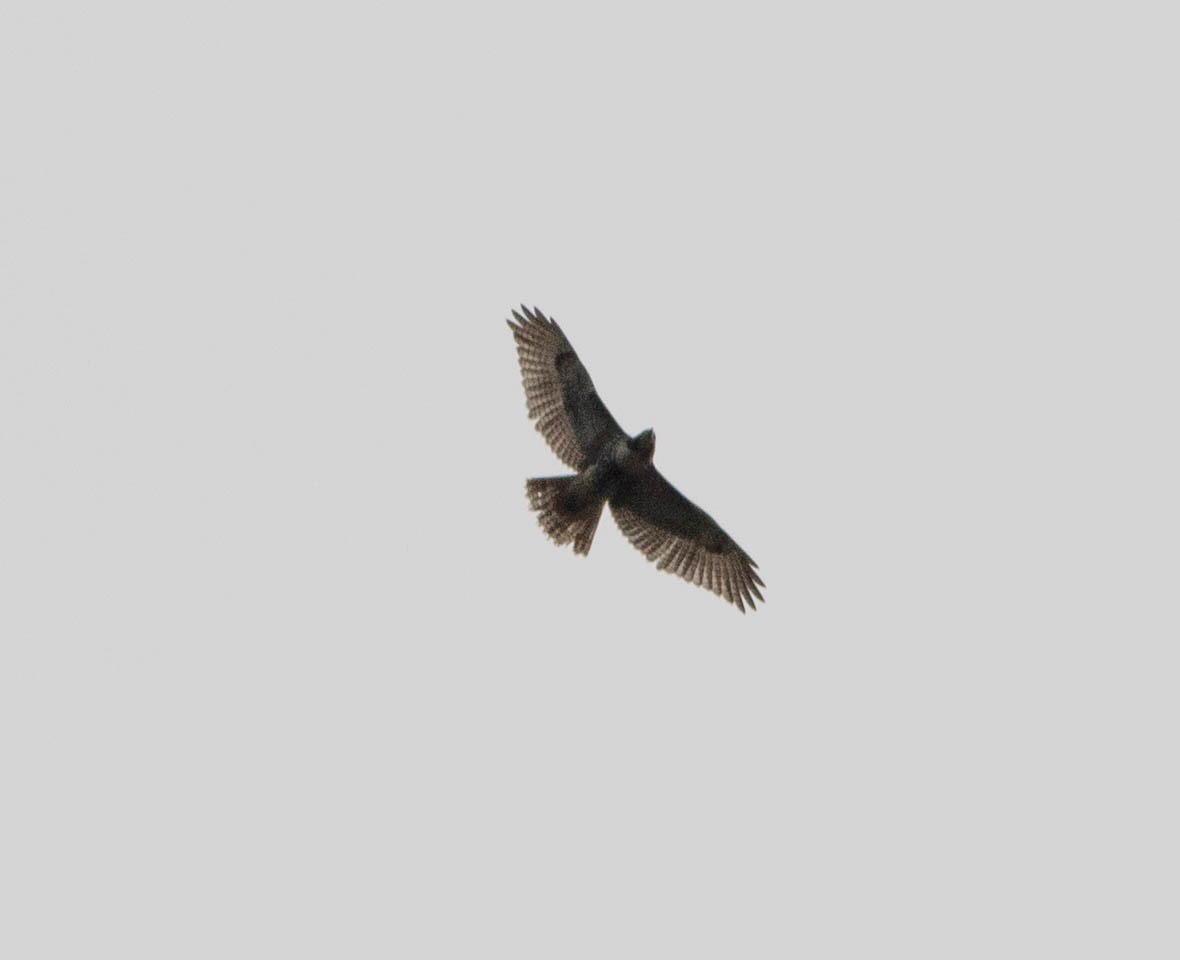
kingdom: Animalia
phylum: Chordata
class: Aves
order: Accipitriformes
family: Accipitridae
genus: Buteo
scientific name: Buteo jamaicensis
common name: Red-tailed hawk
